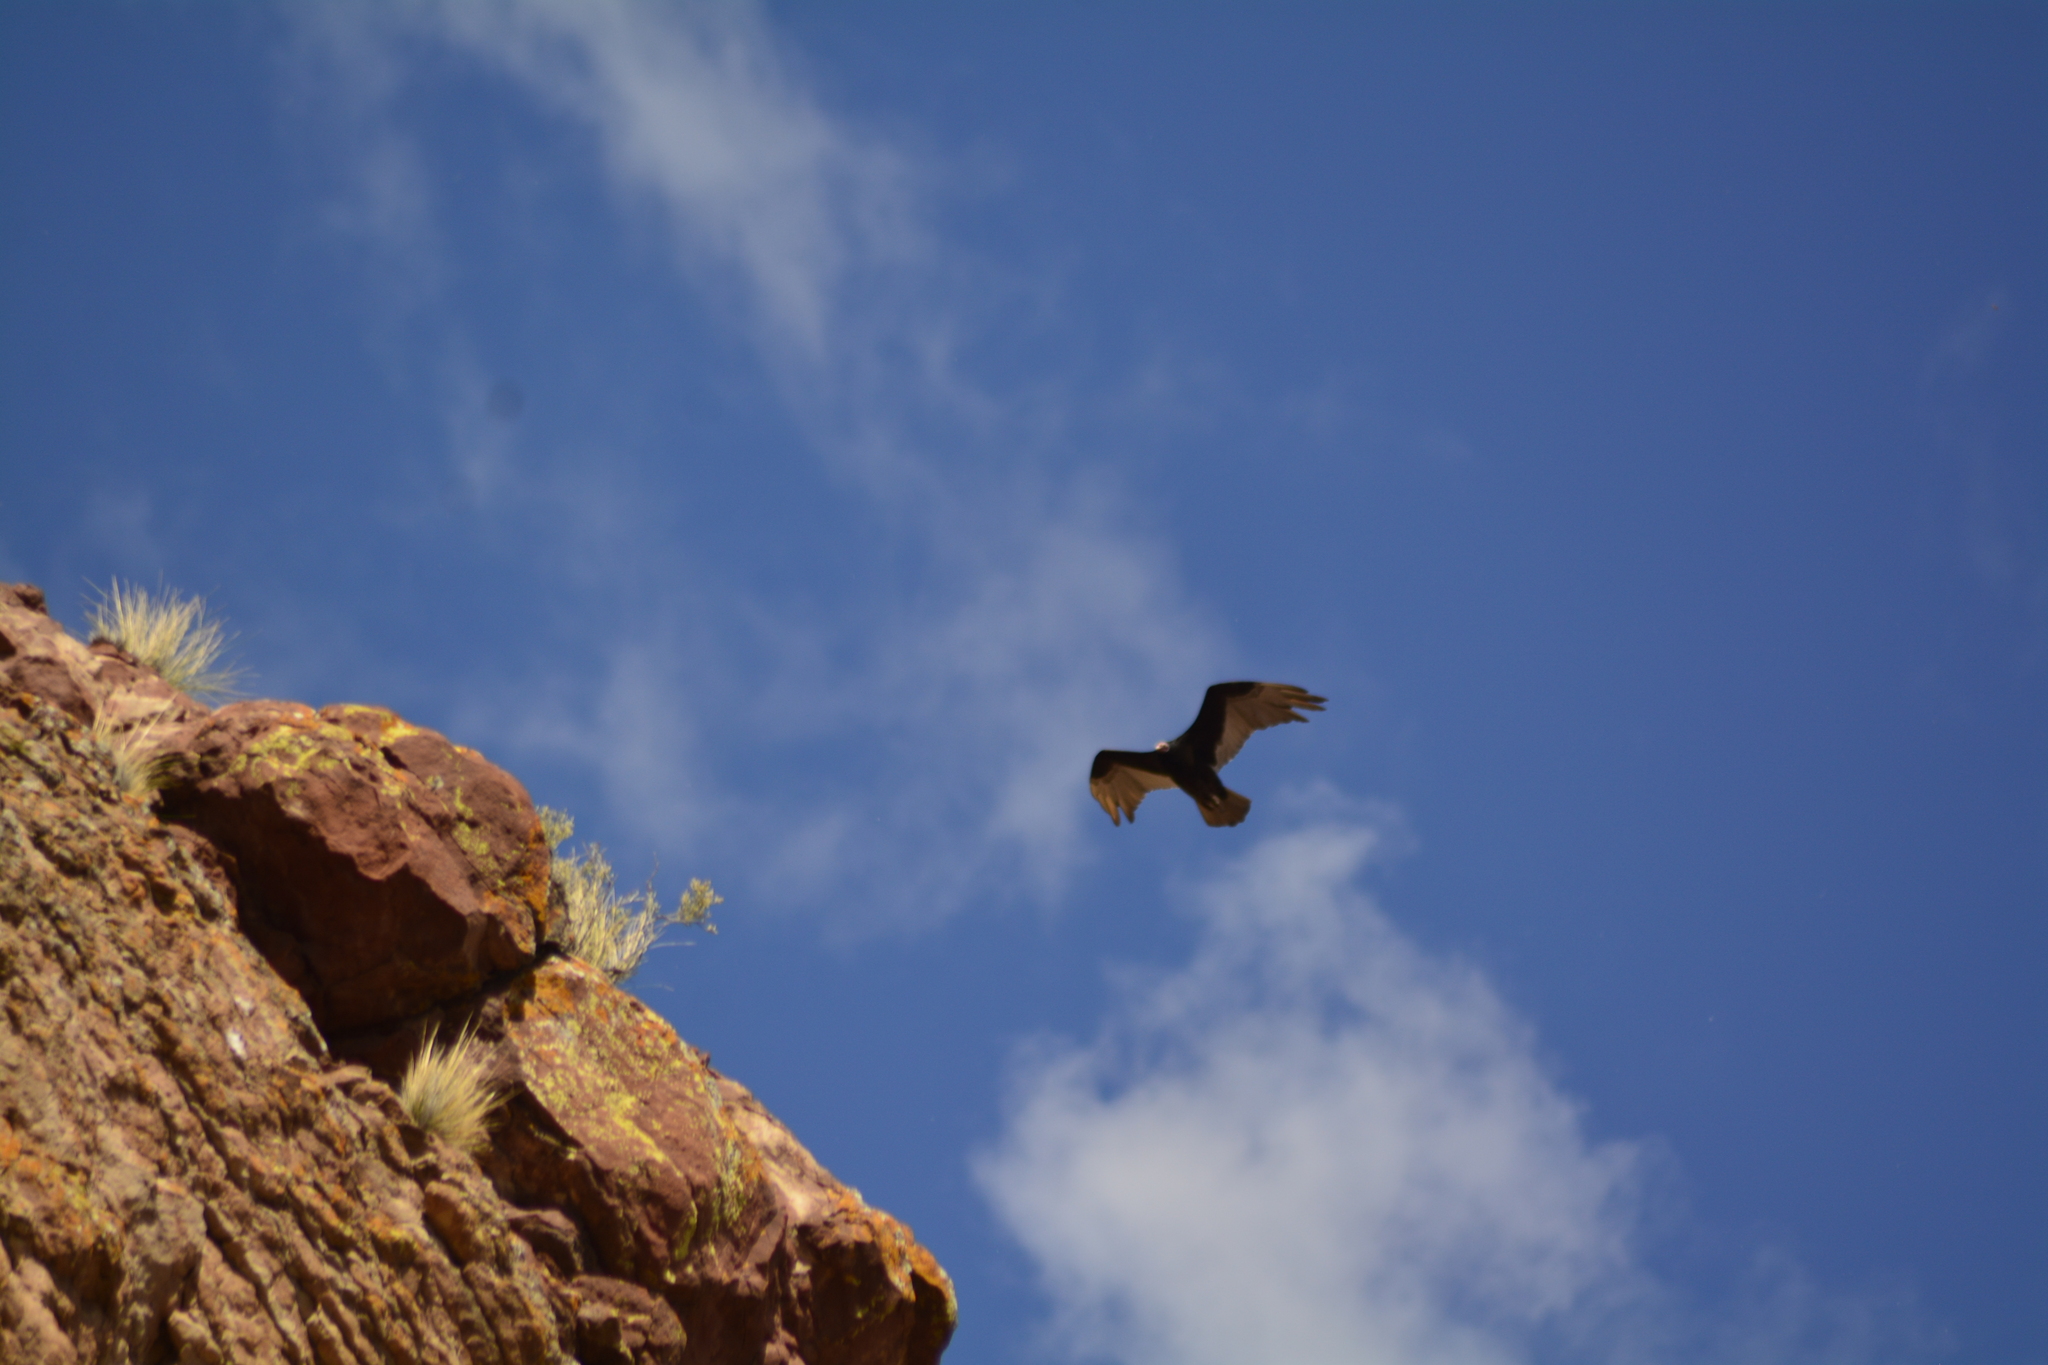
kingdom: Animalia
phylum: Chordata
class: Aves
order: Accipitriformes
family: Cathartidae
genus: Cathartes
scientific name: Cathartes aura
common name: Turkey vulture
